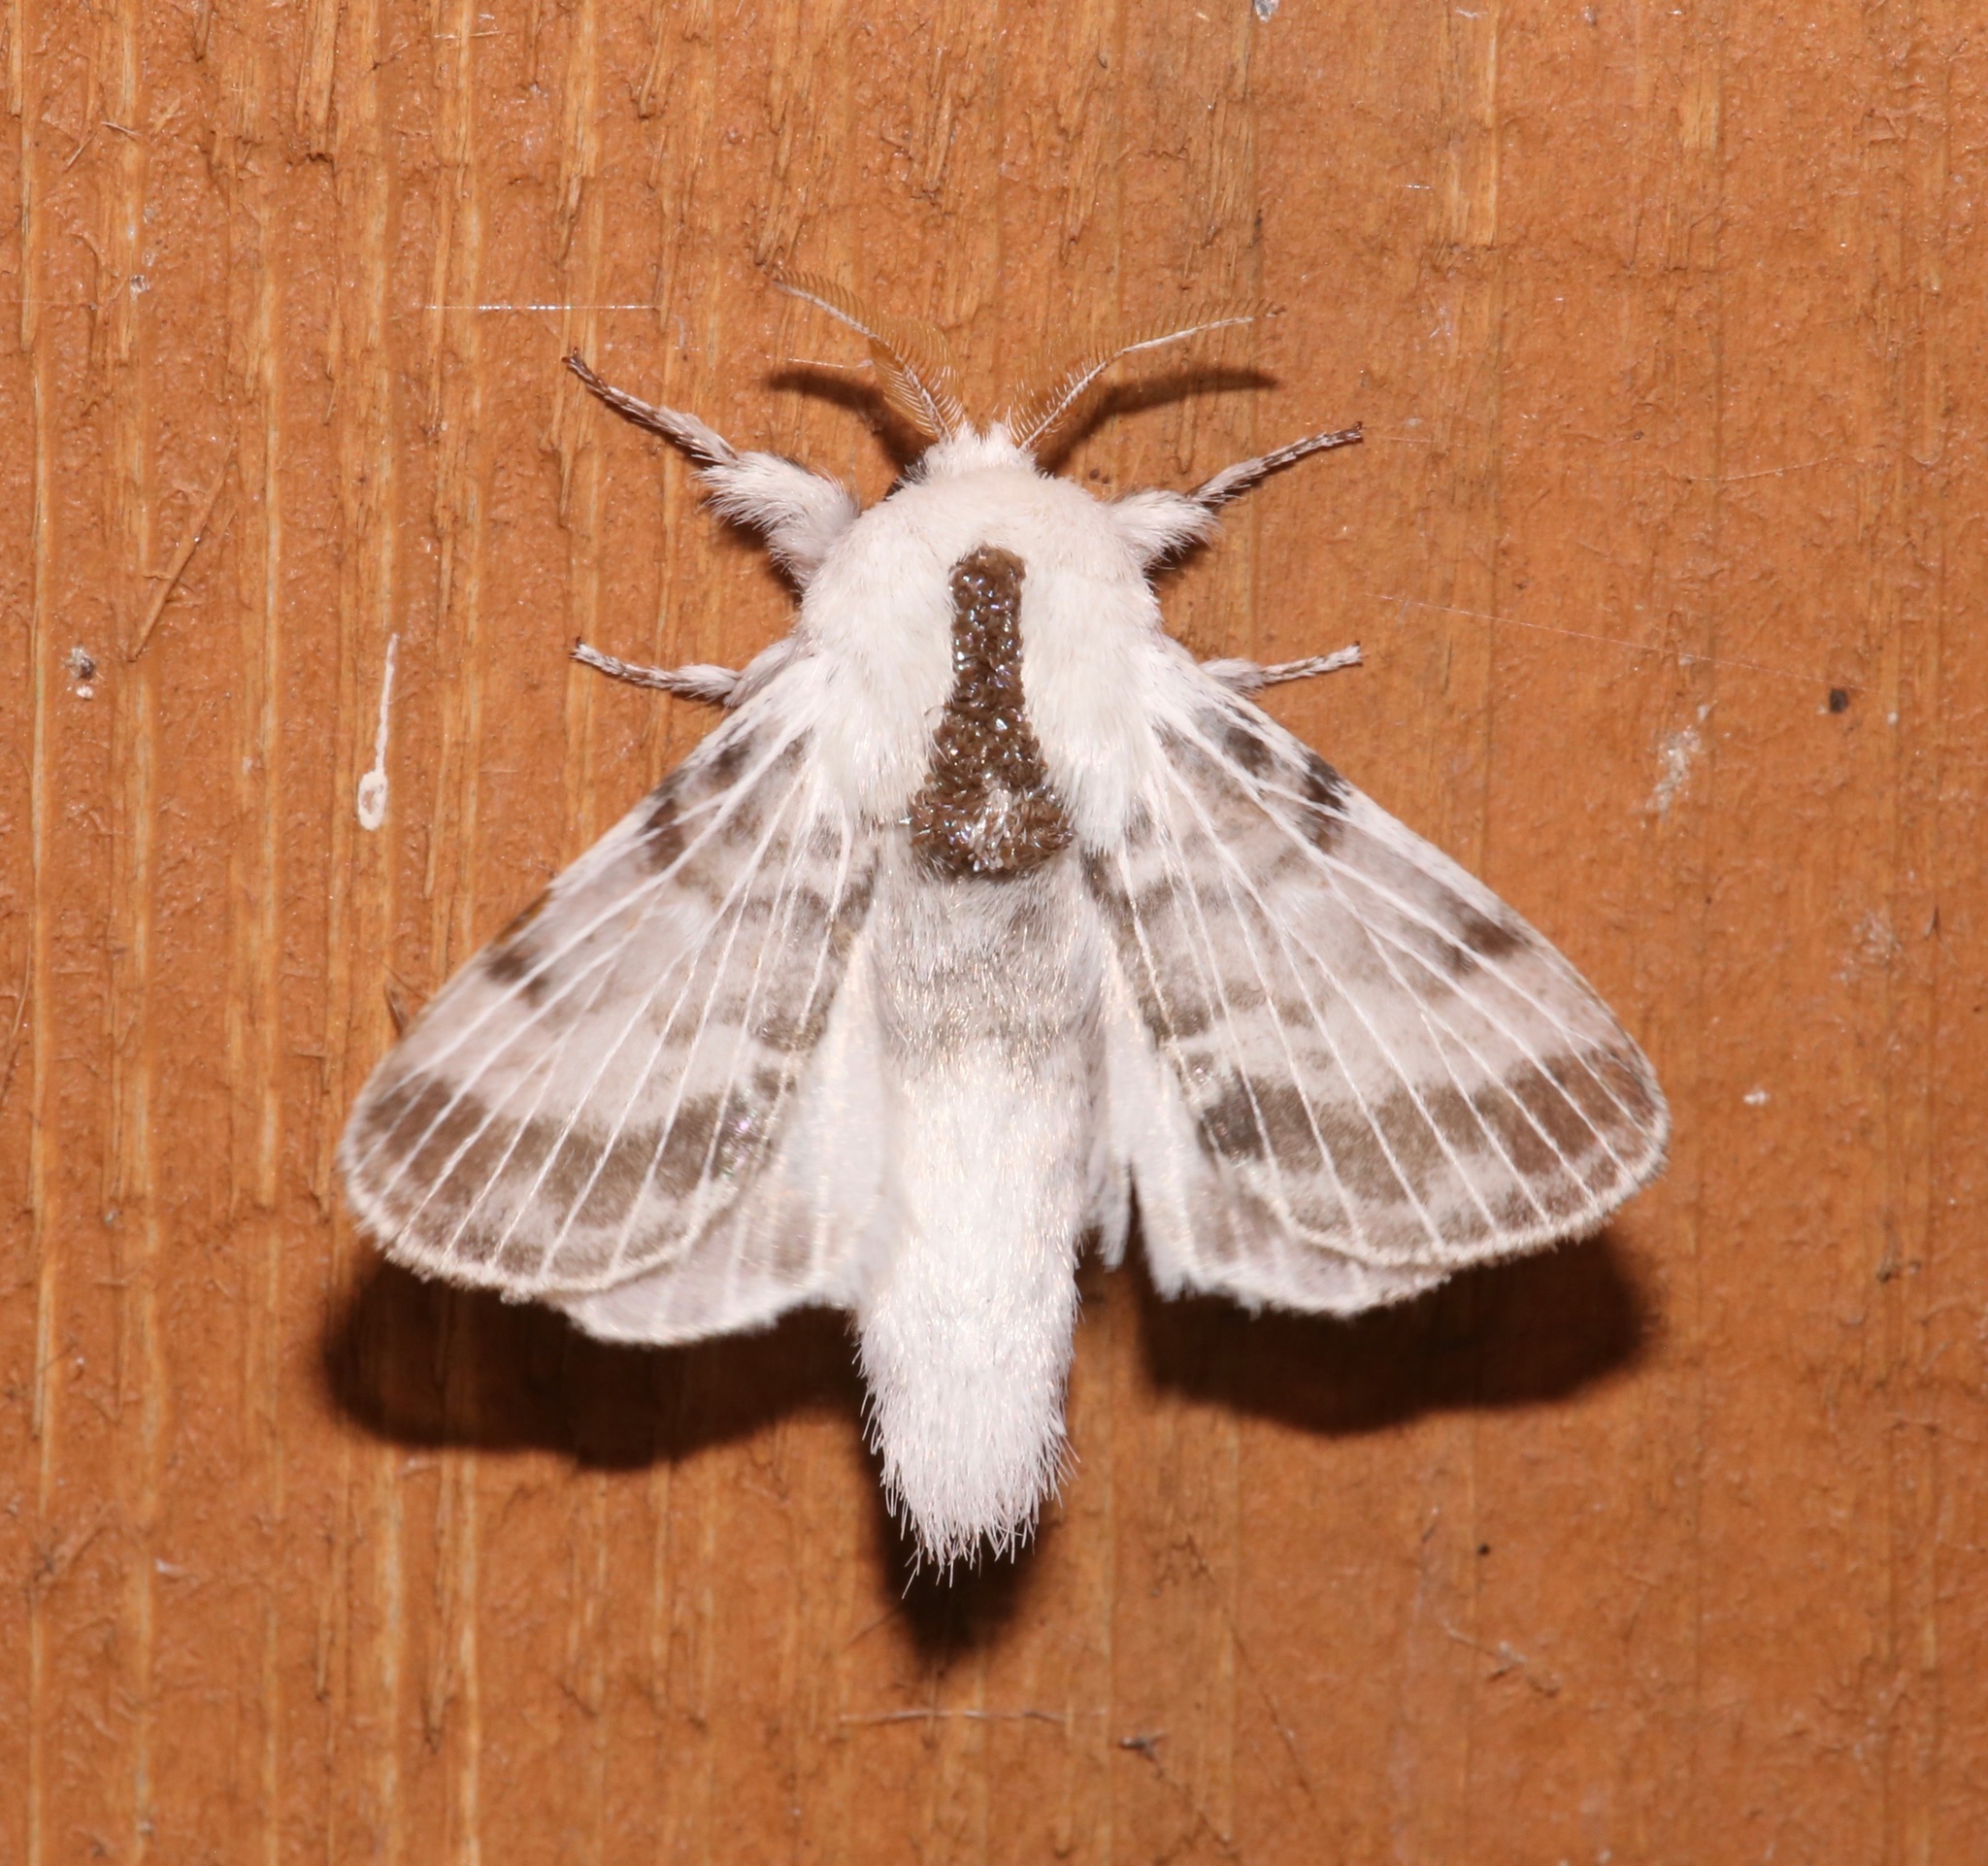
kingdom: Animalia
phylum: Arthropoda
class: Insecta
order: Lepidoptera
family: Lasiocampidae
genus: Tolype
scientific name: Tolype minta
